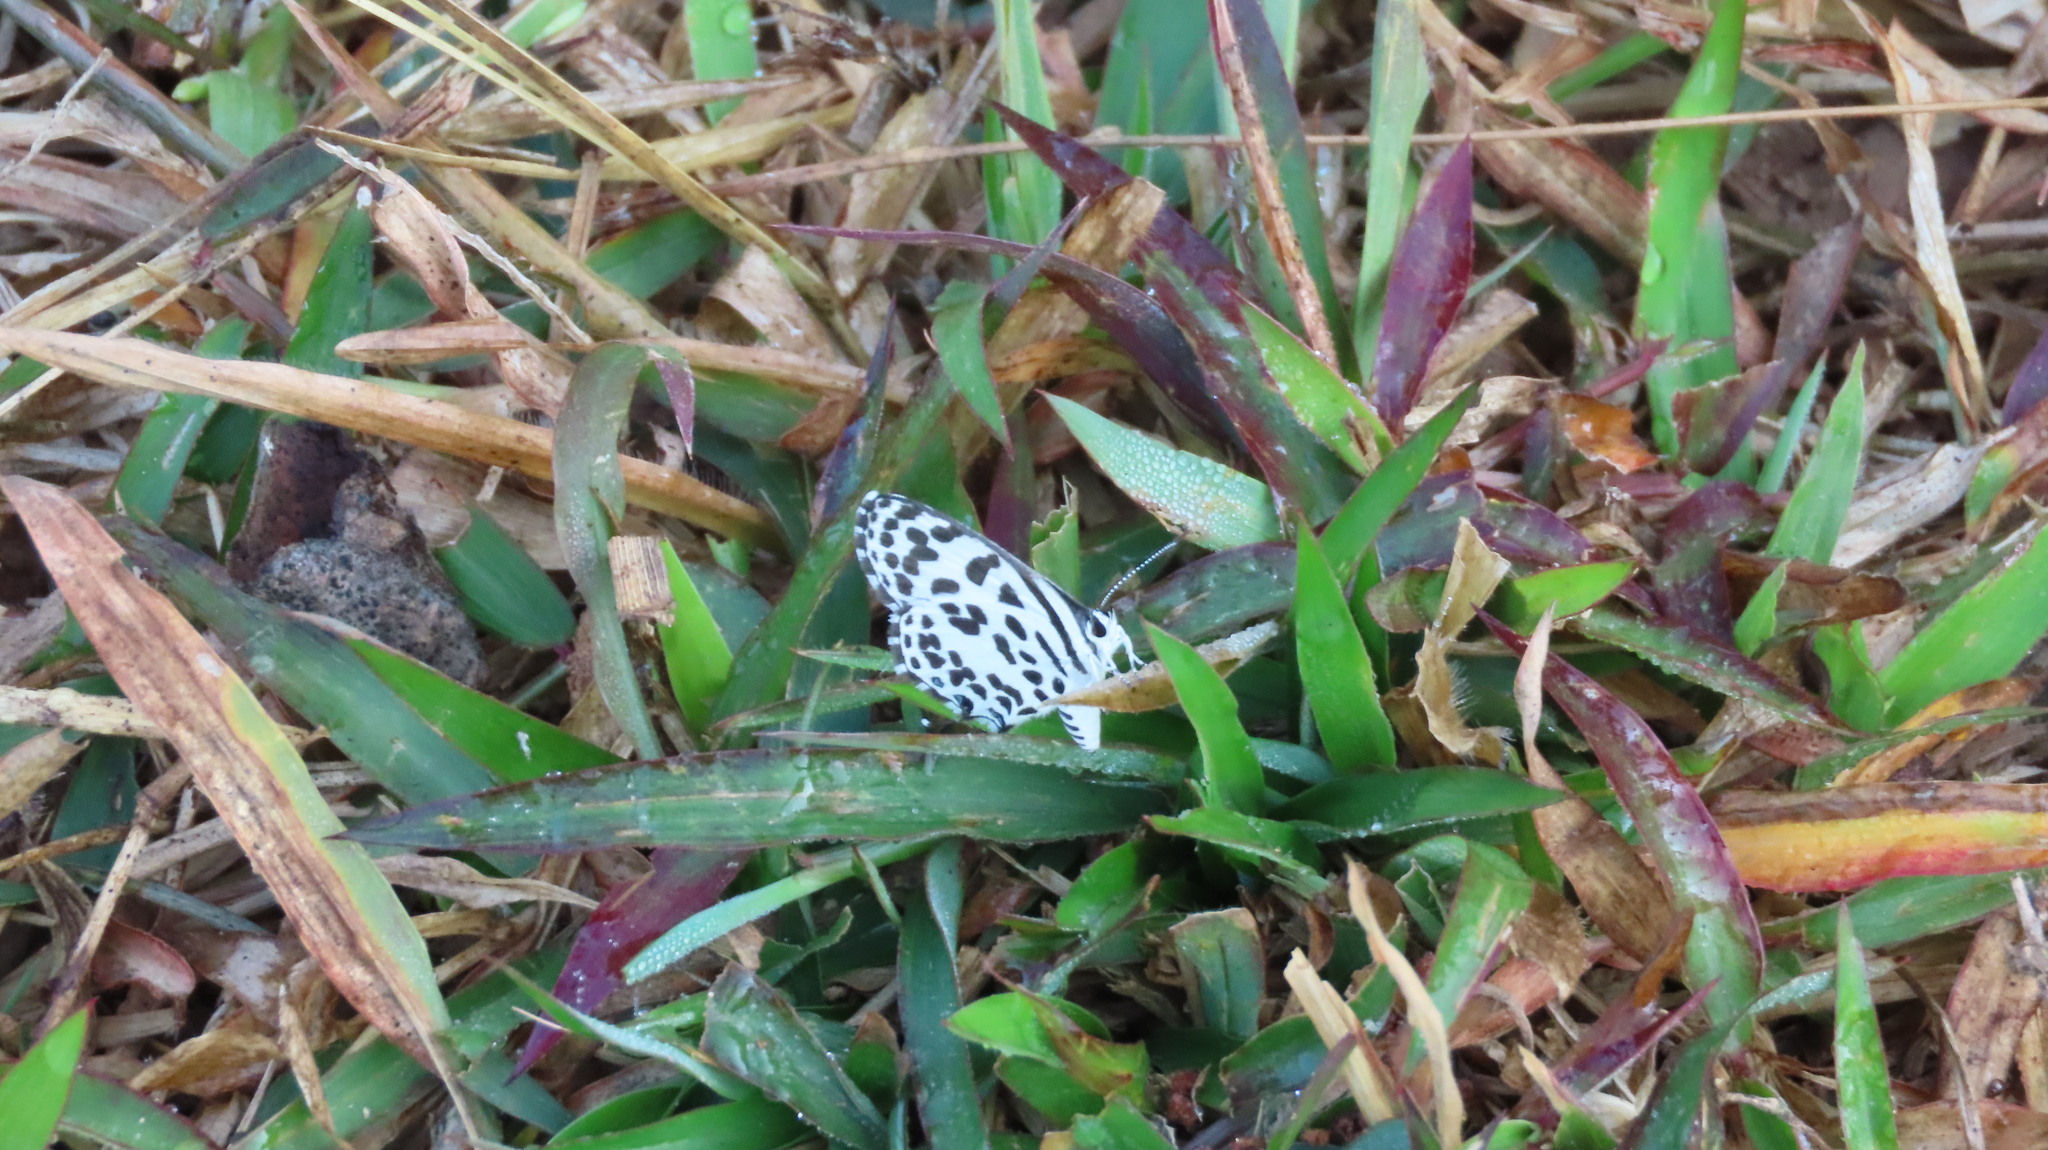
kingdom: Animalia
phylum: Arthropoda
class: Insecta
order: Lepidoptera
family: Lycaenidae
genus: Castalius
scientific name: Castalius rosimon
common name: Common pierrot
